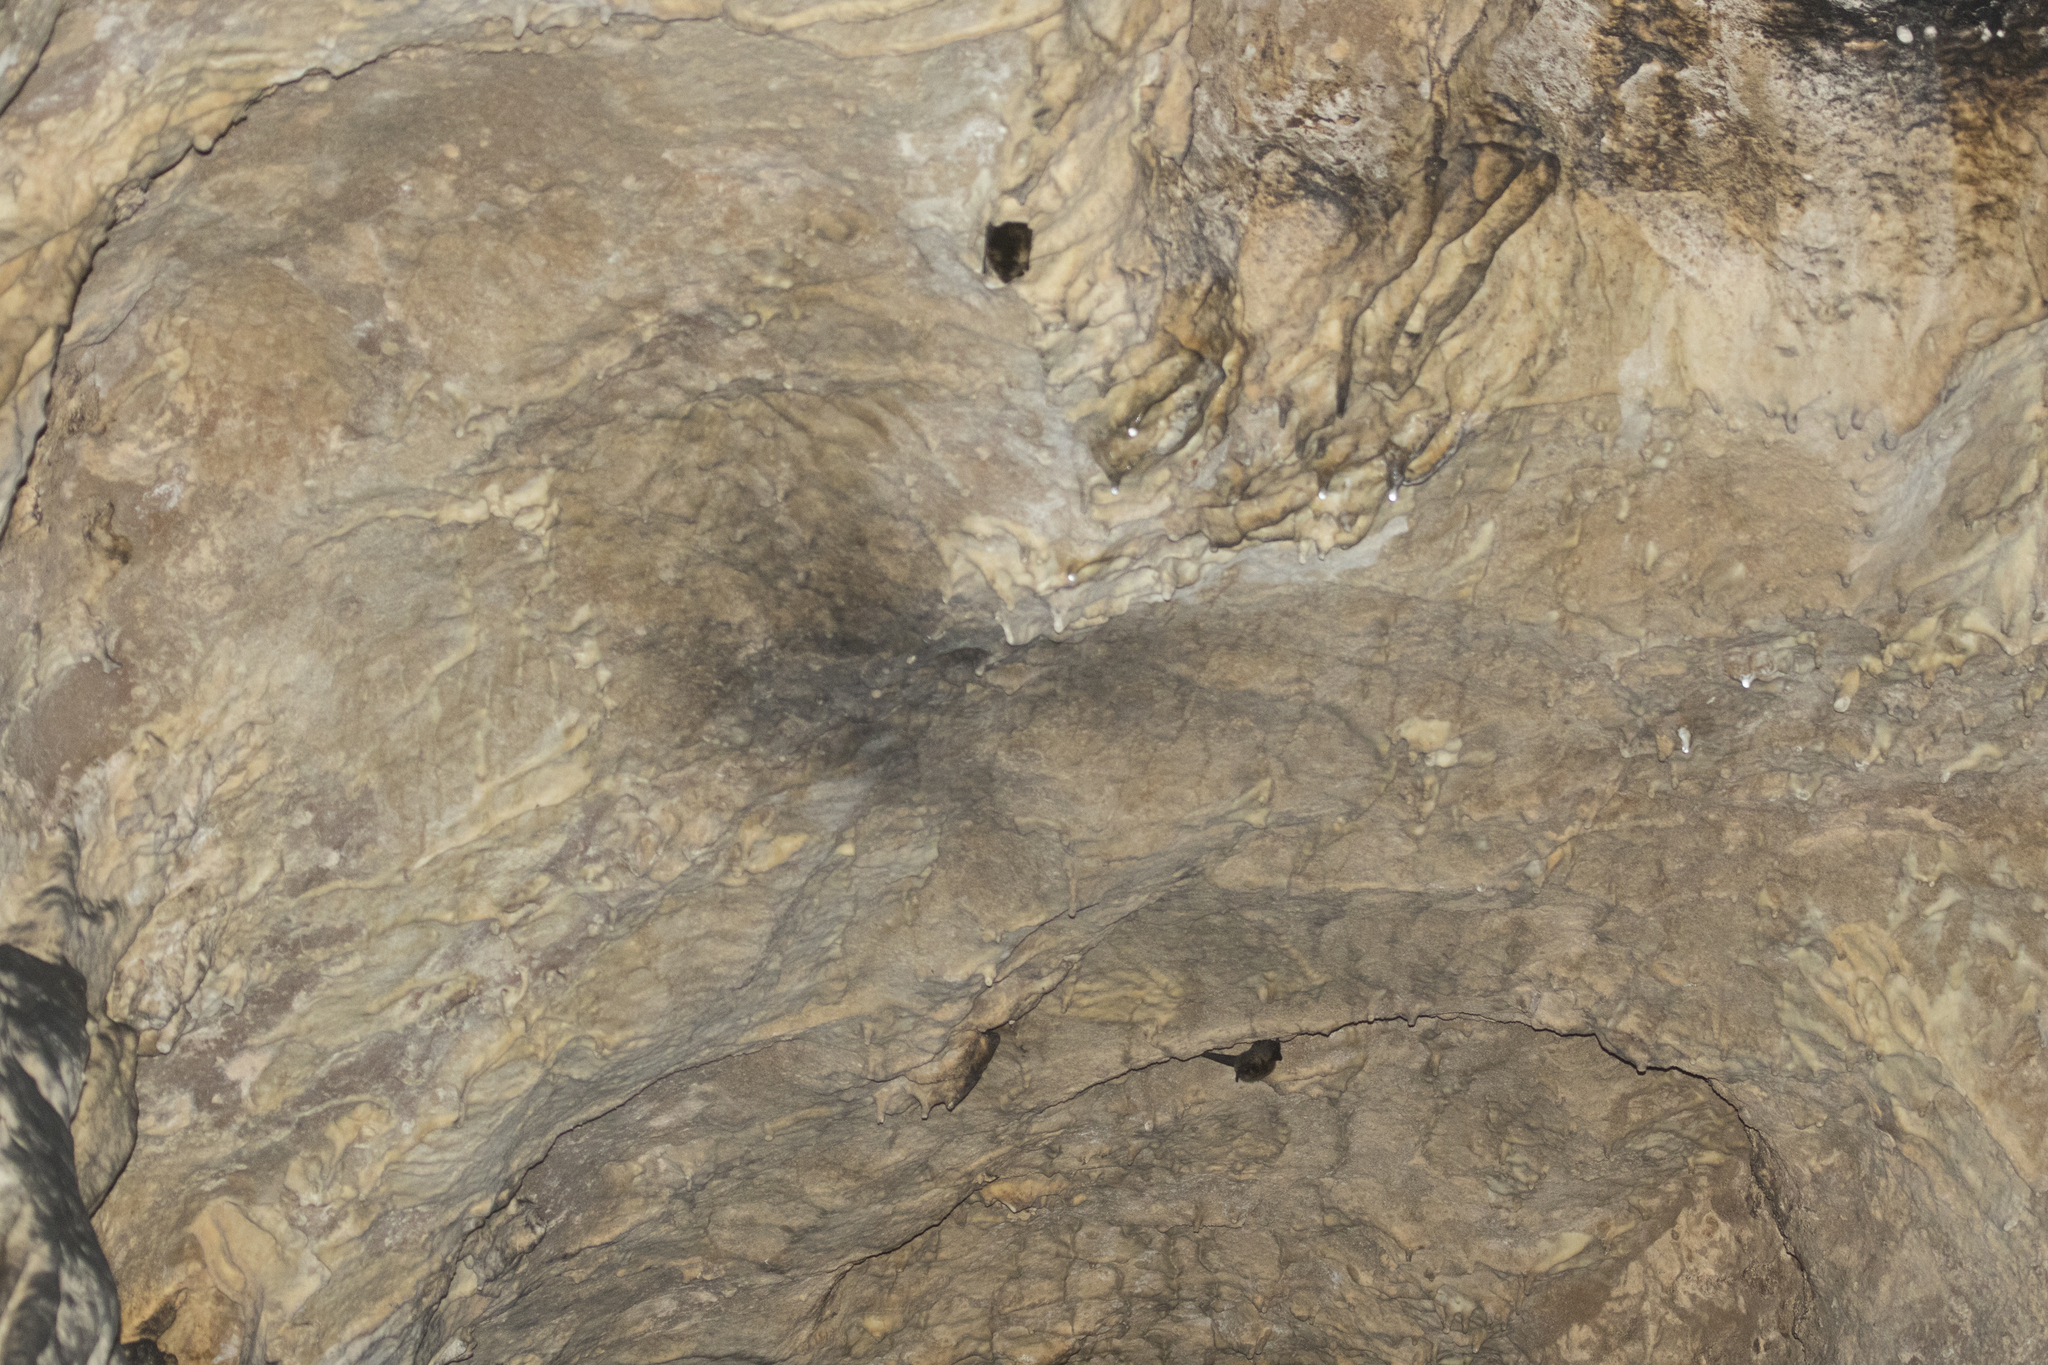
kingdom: Animalia
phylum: Chordata
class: Mammalia
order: Chiroptera
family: Vespertilionidae
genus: Eptesicus
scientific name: Eptesicus nilssonii
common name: Northern bat
